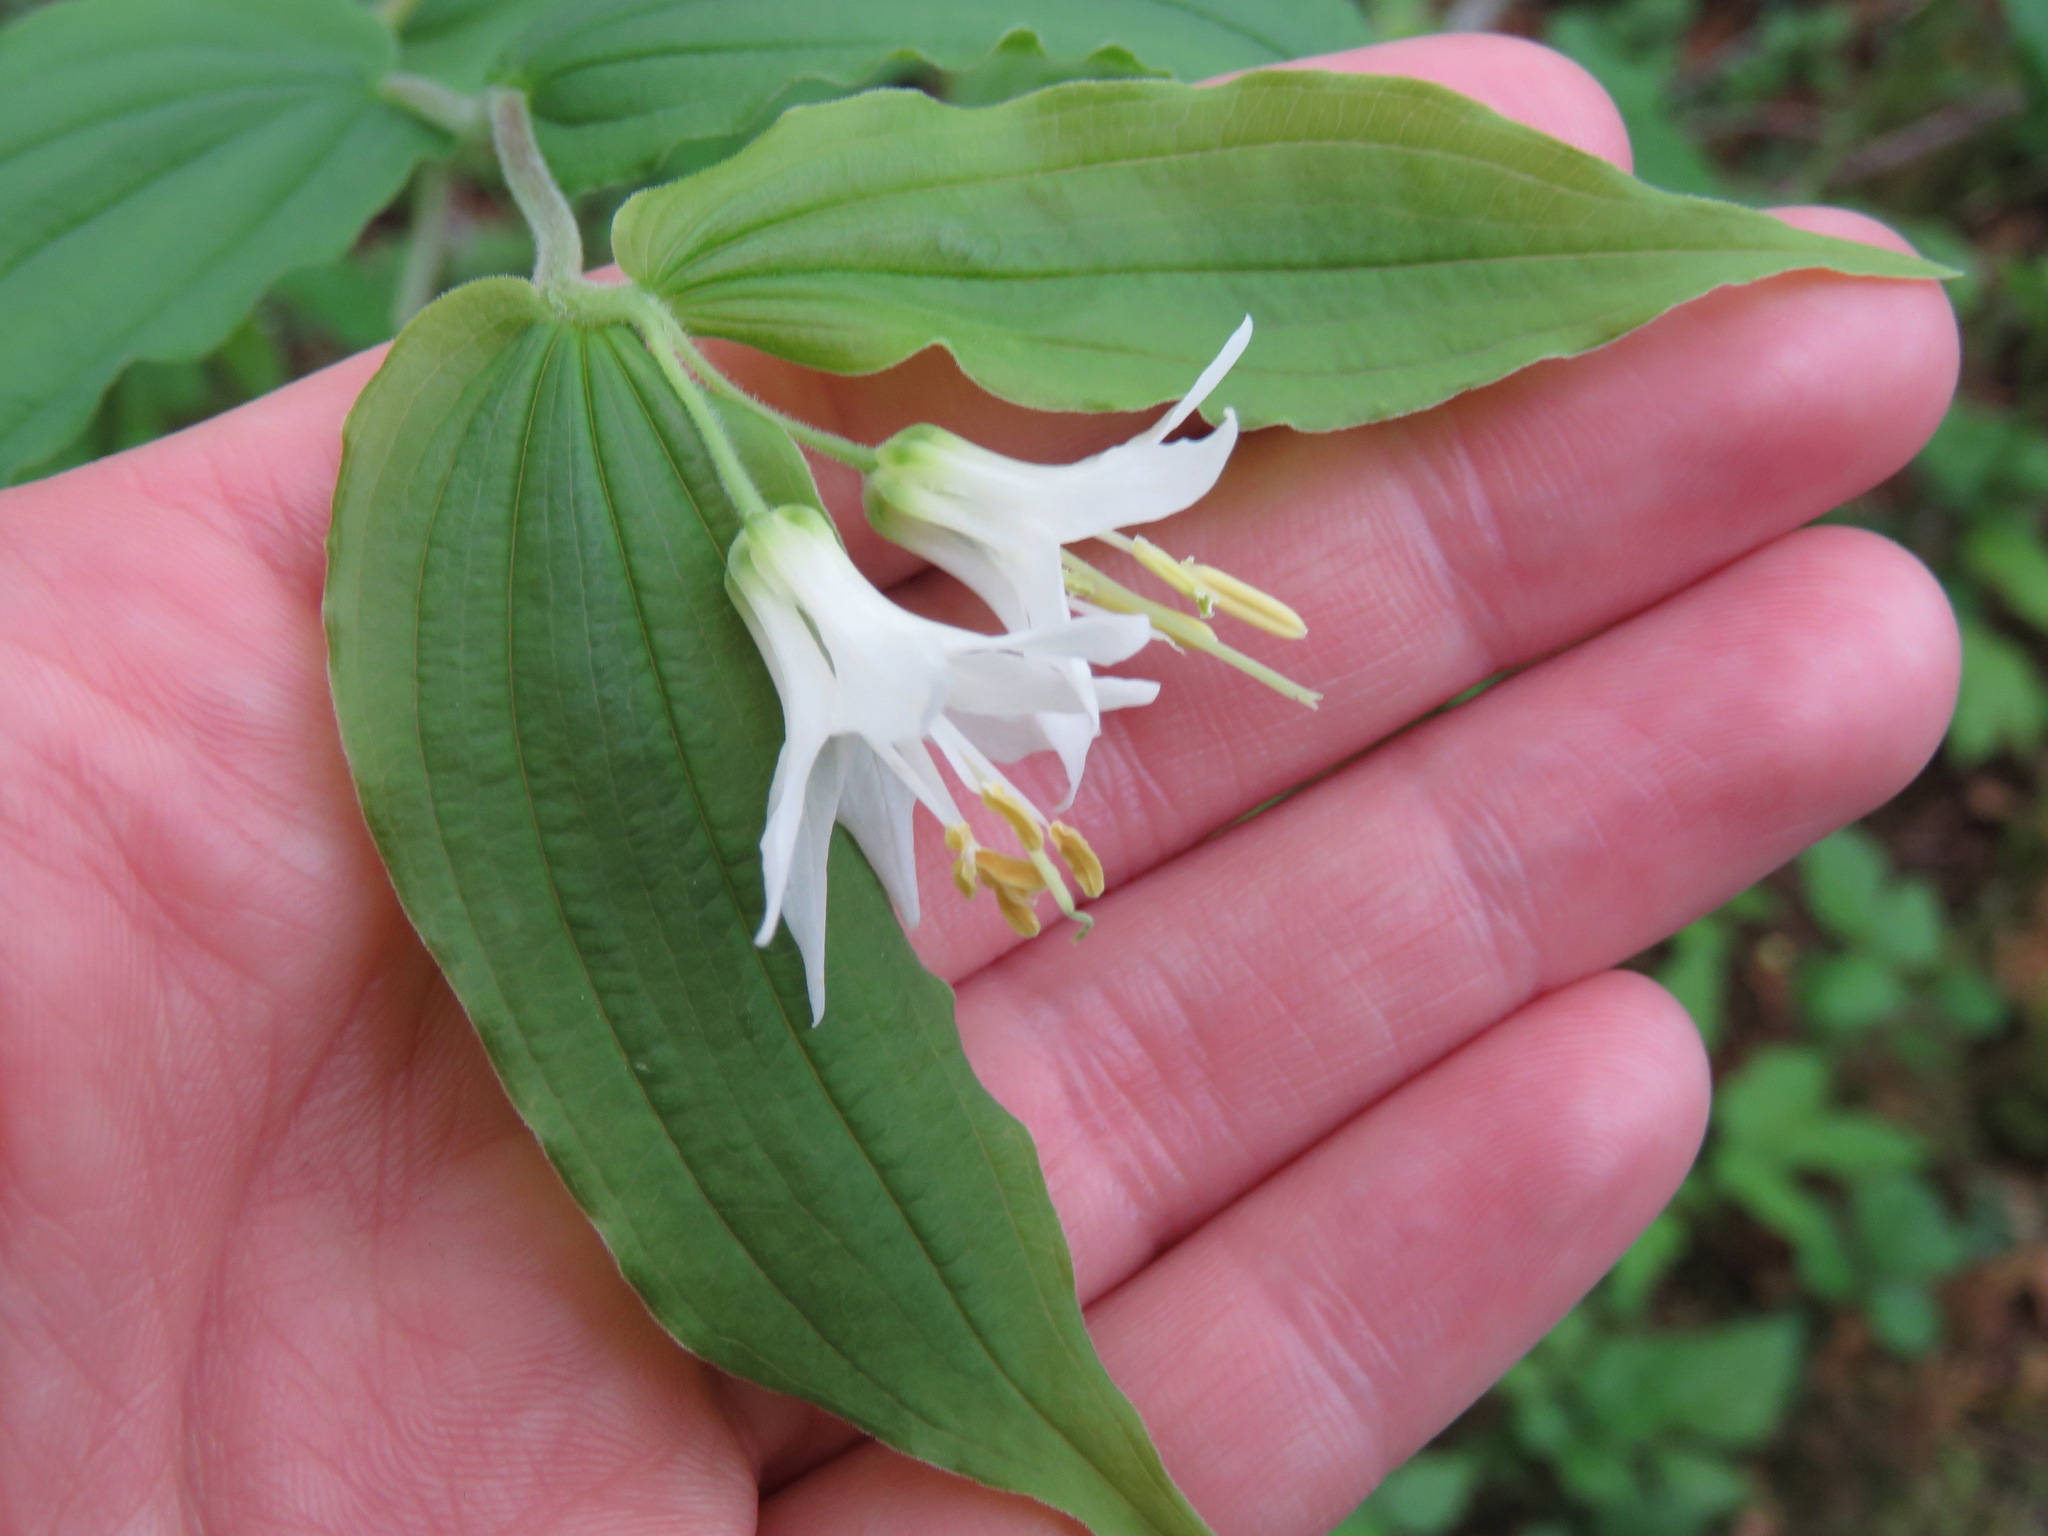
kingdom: Plantae
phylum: Tracheophyta
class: Liliopsida
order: Liliales
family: Liliaceae
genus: Prosartes
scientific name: Prosartes hookeri
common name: Fairy-bells
